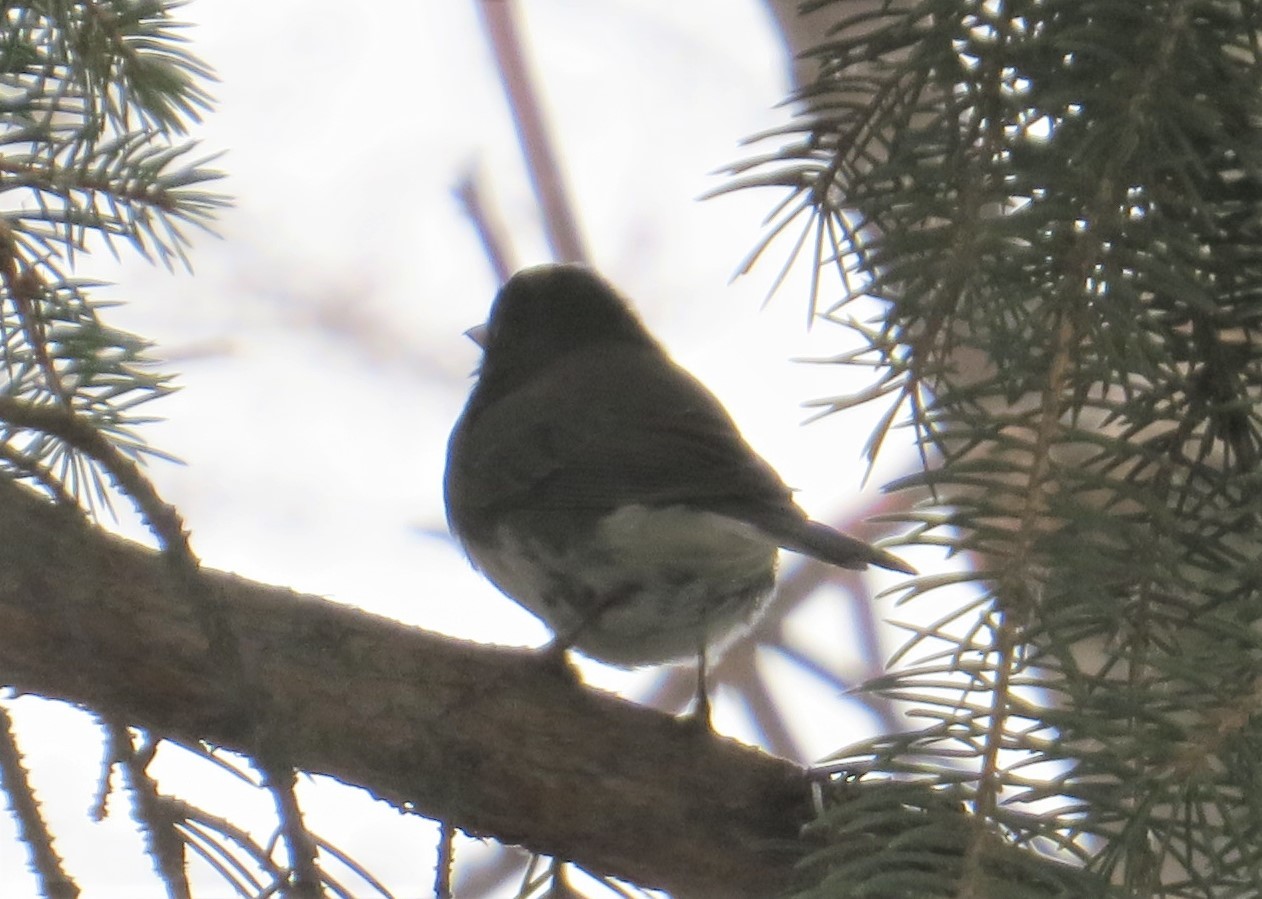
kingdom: Animalia
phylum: Chordata
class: Aves
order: Passeriformes
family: Passerellidae
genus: Junco
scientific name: Junco hyemalis
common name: Dark-eyed junco
